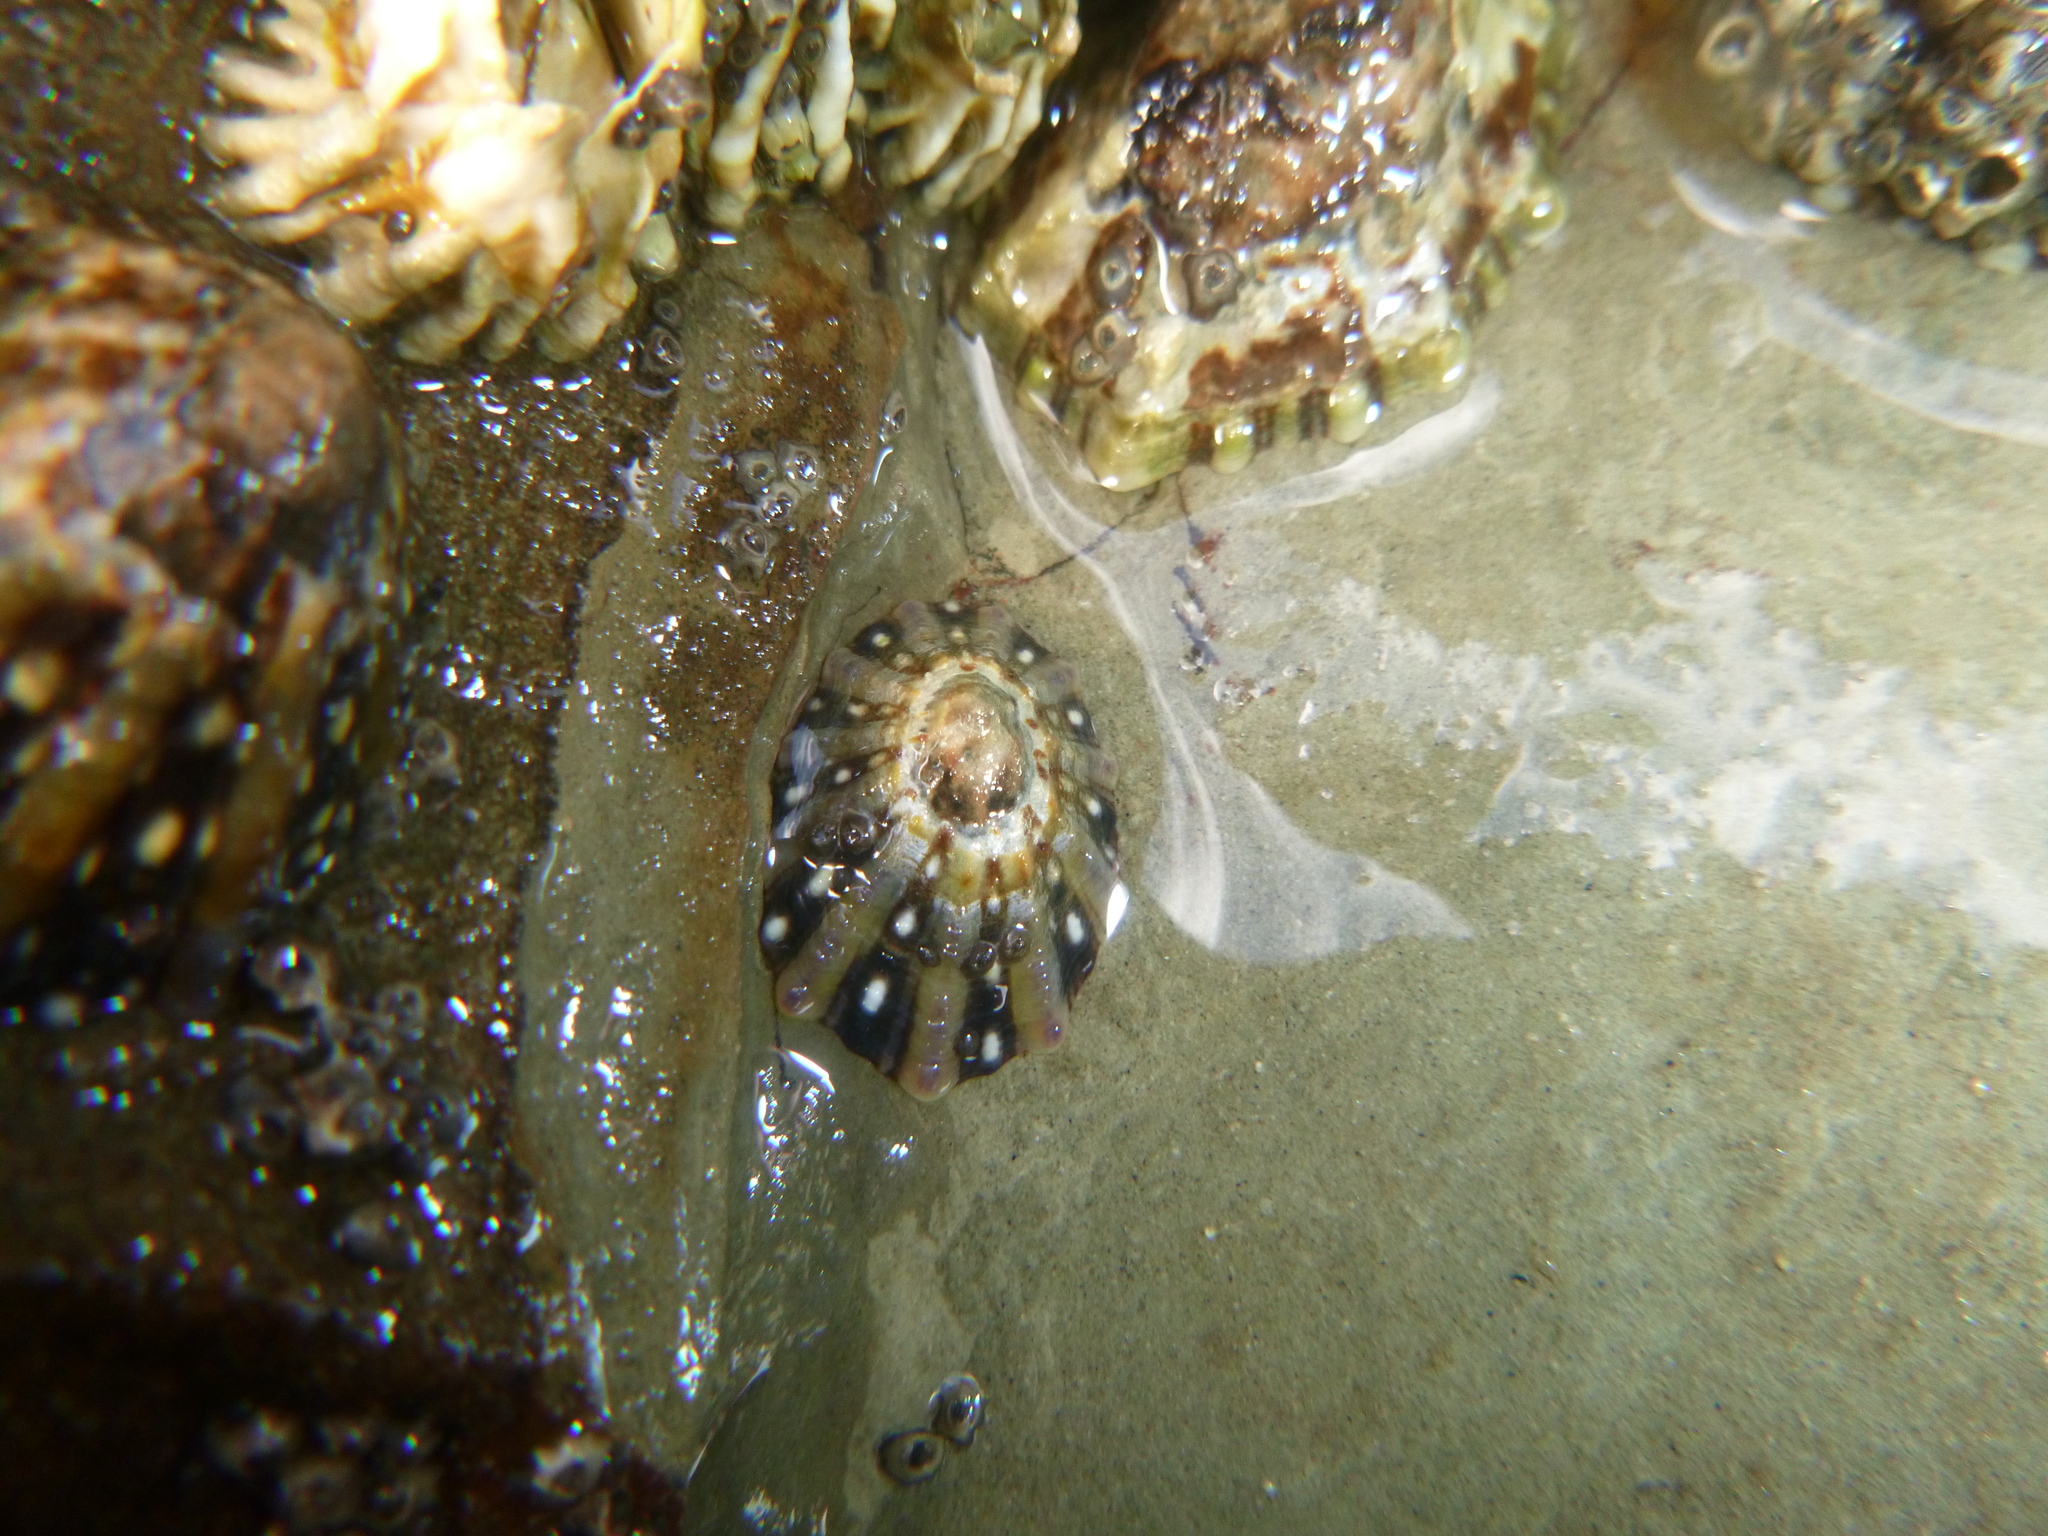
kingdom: Animalia
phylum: Mollusca
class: Gastropoda
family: Nacellidae
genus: Cellana
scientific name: Cellana ornata
